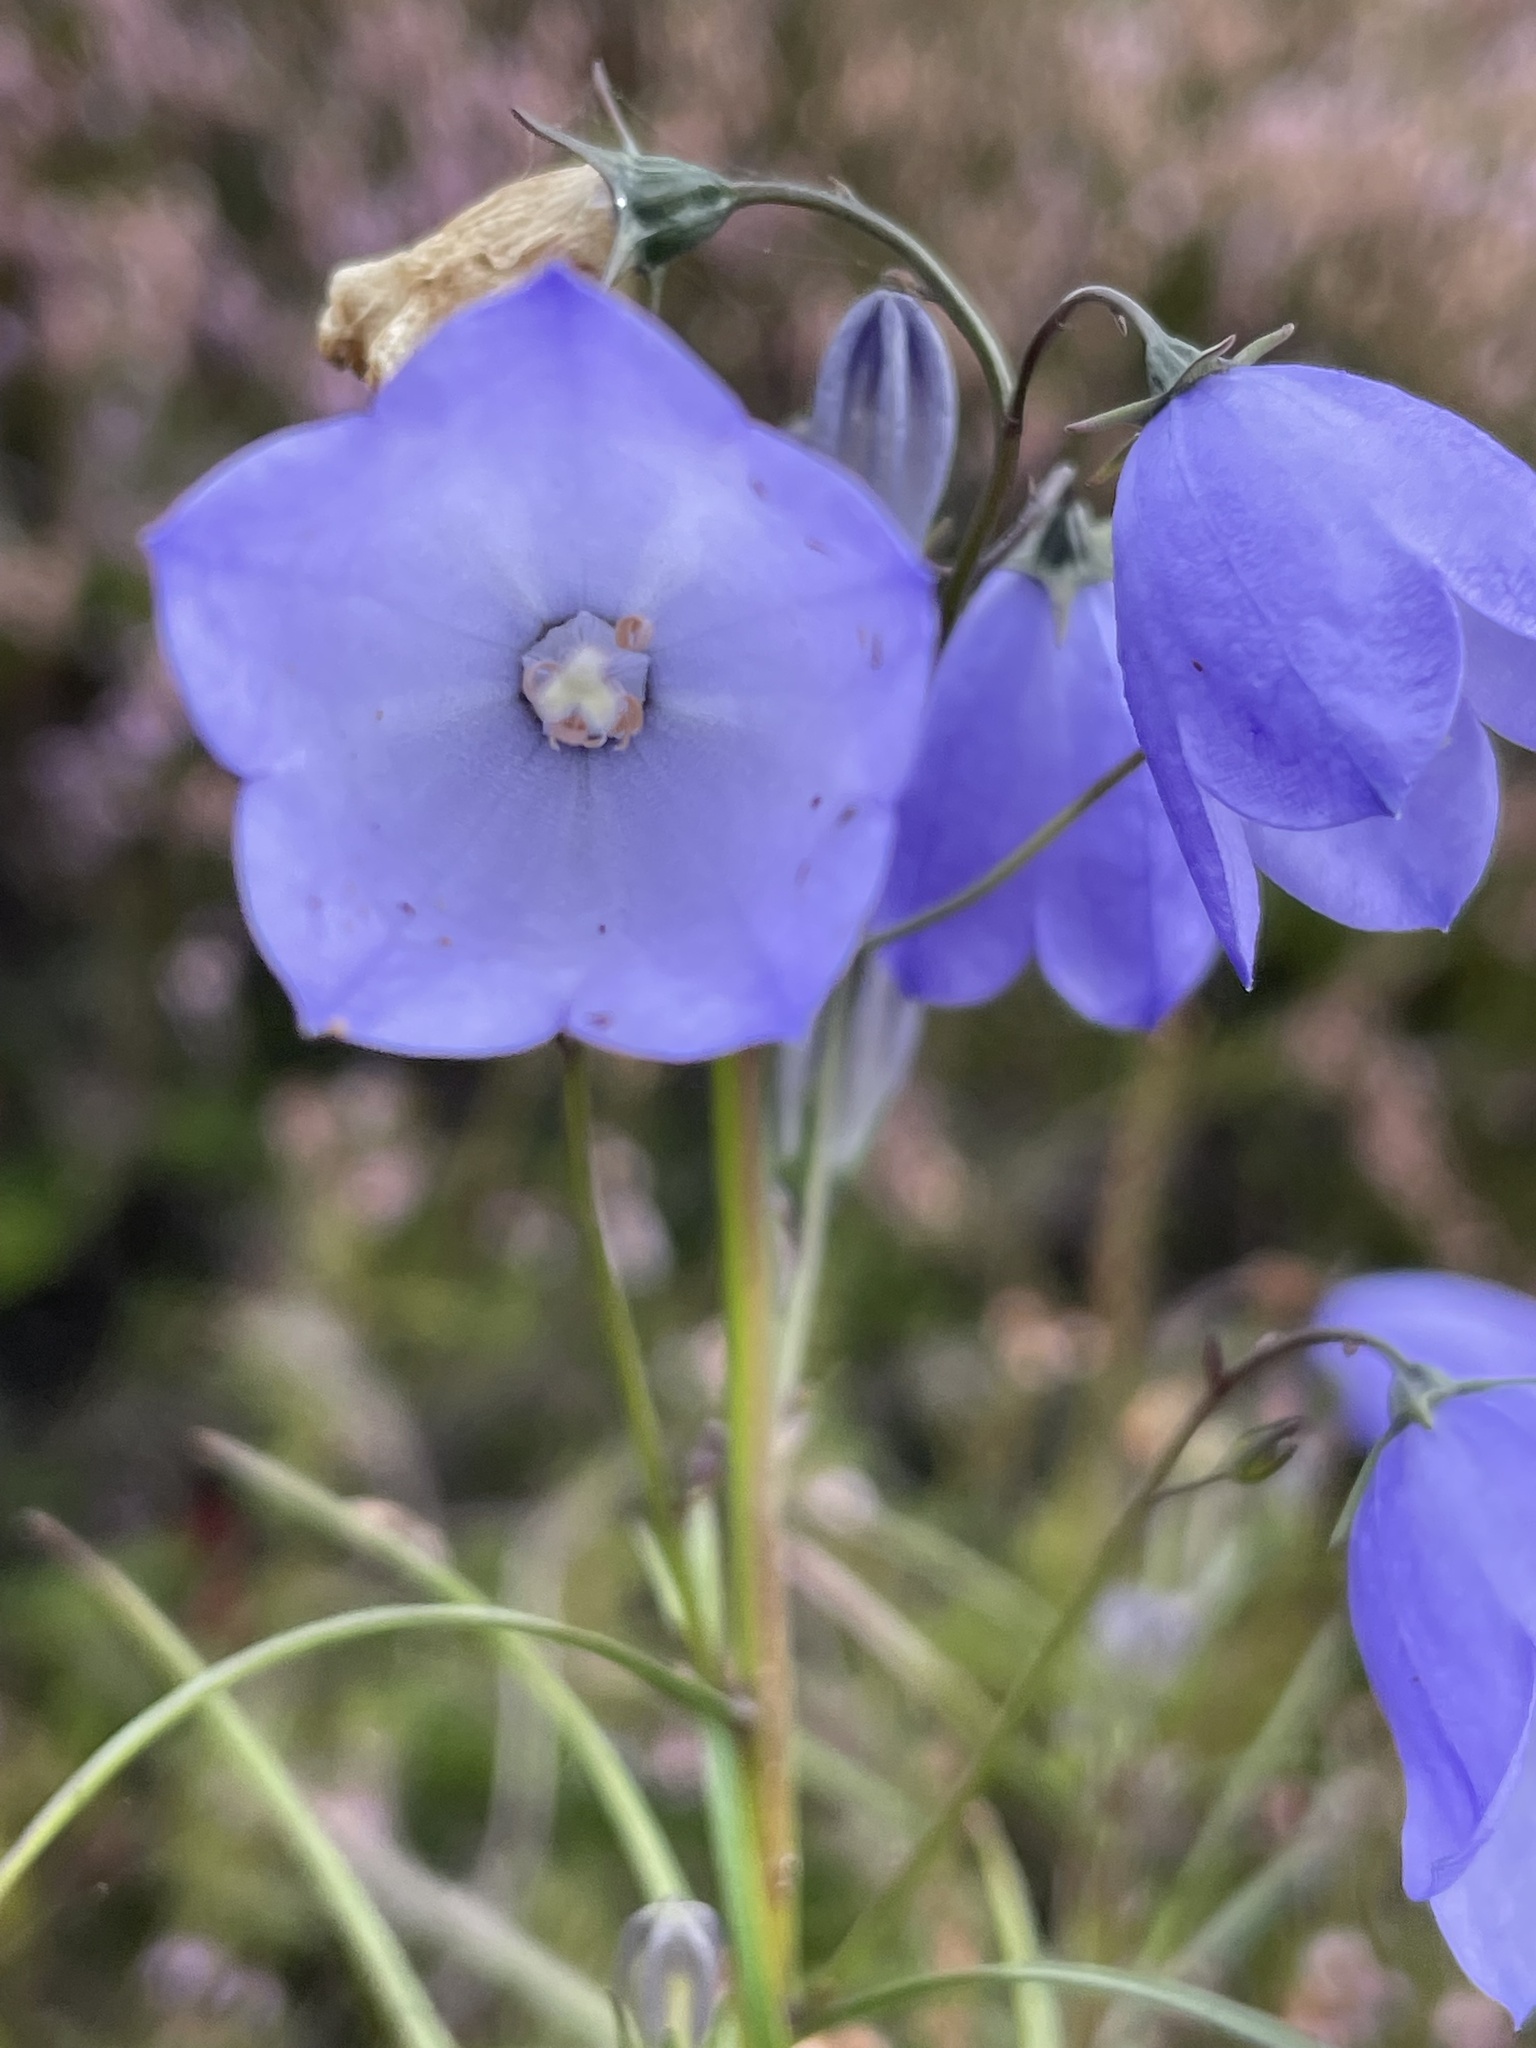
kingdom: Plantae
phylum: Tracheophyta
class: Magnoliopsida
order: Asterales
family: Campanulaceae
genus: Campanula
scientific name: Campanula rotundifolia
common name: Harebell
